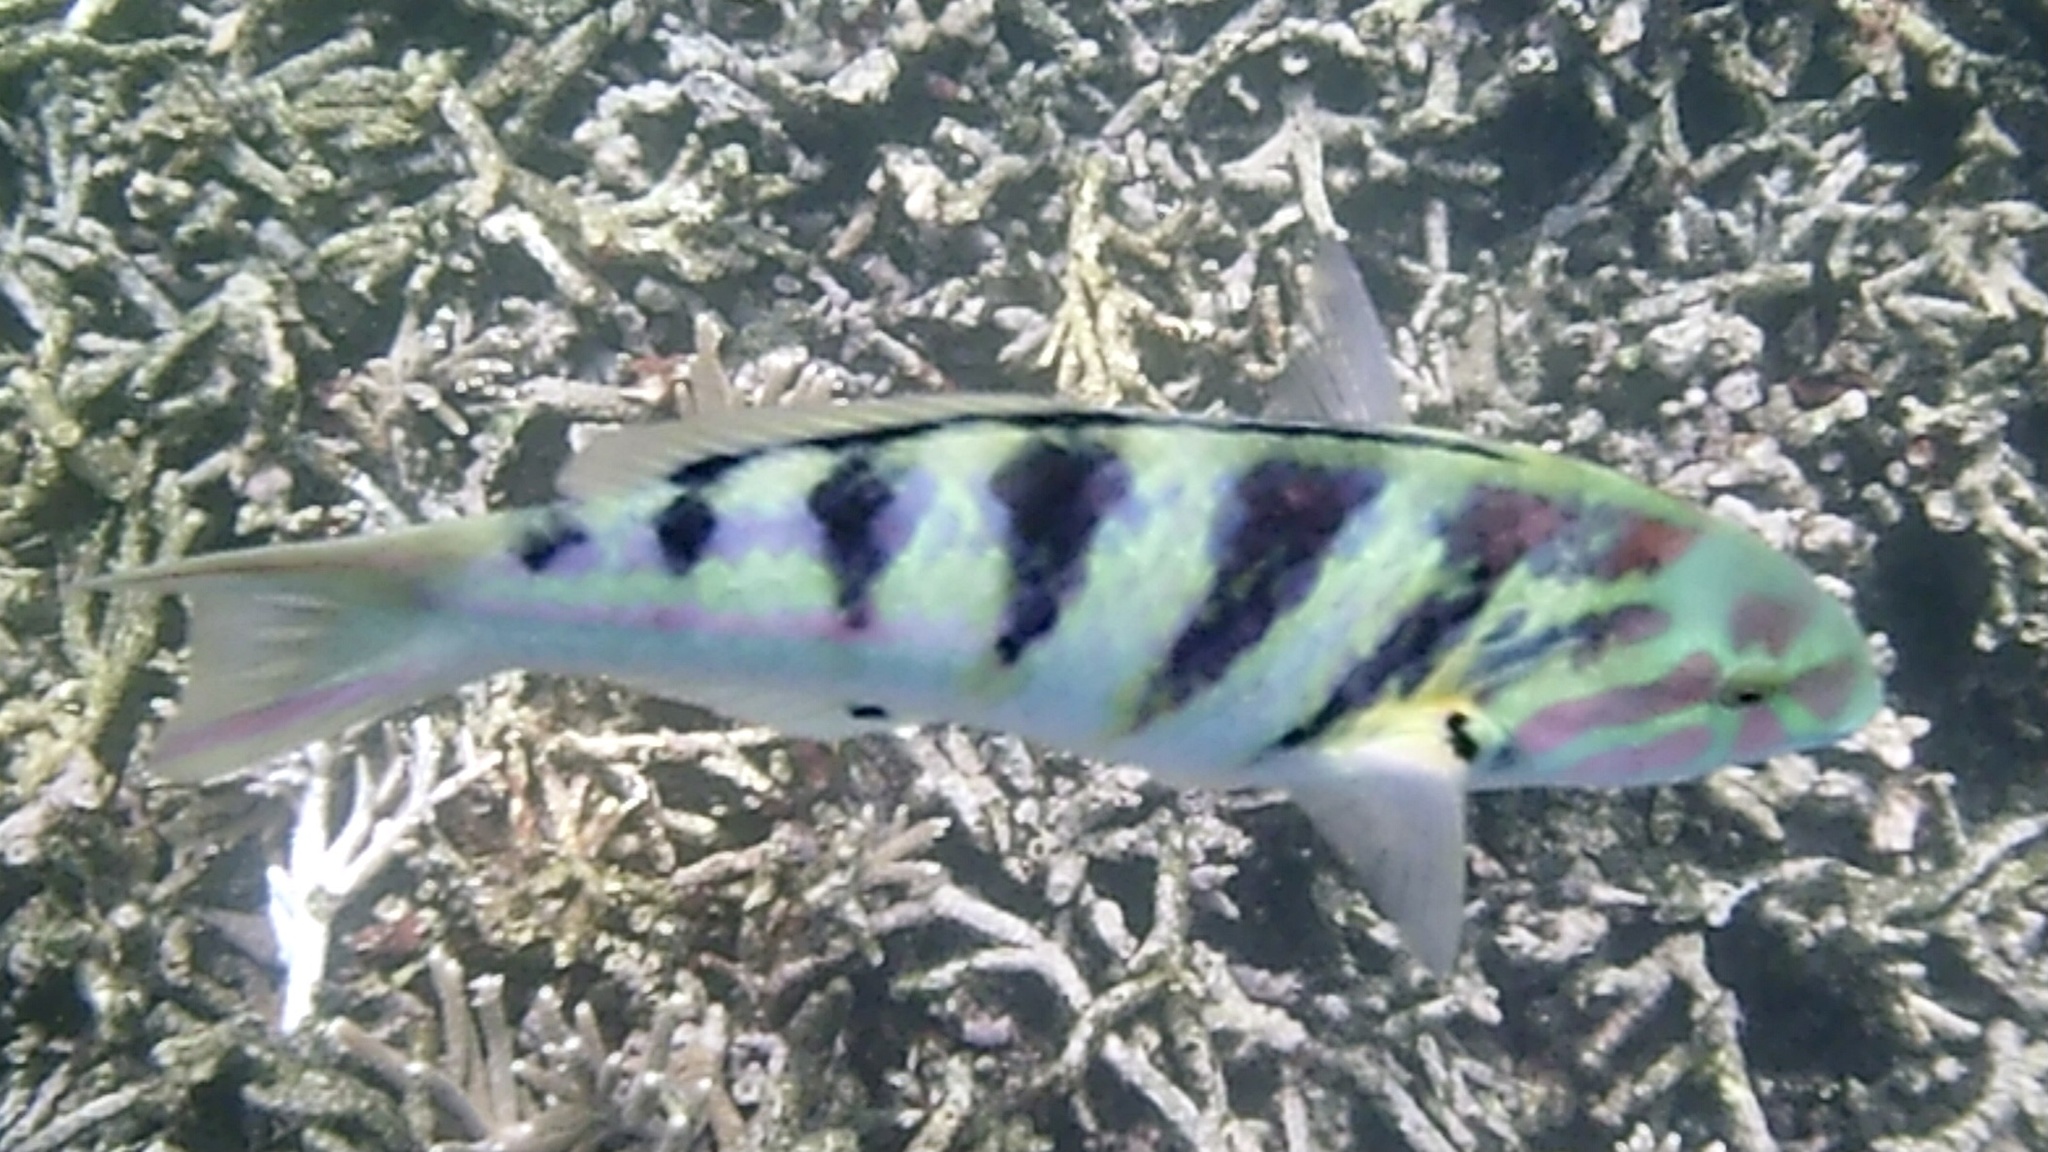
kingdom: Animalia
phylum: Chordata
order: Perciformes
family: Labridae
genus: Thalassoma
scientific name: Thalassoma hardwicke
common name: Sixbar wrasse
